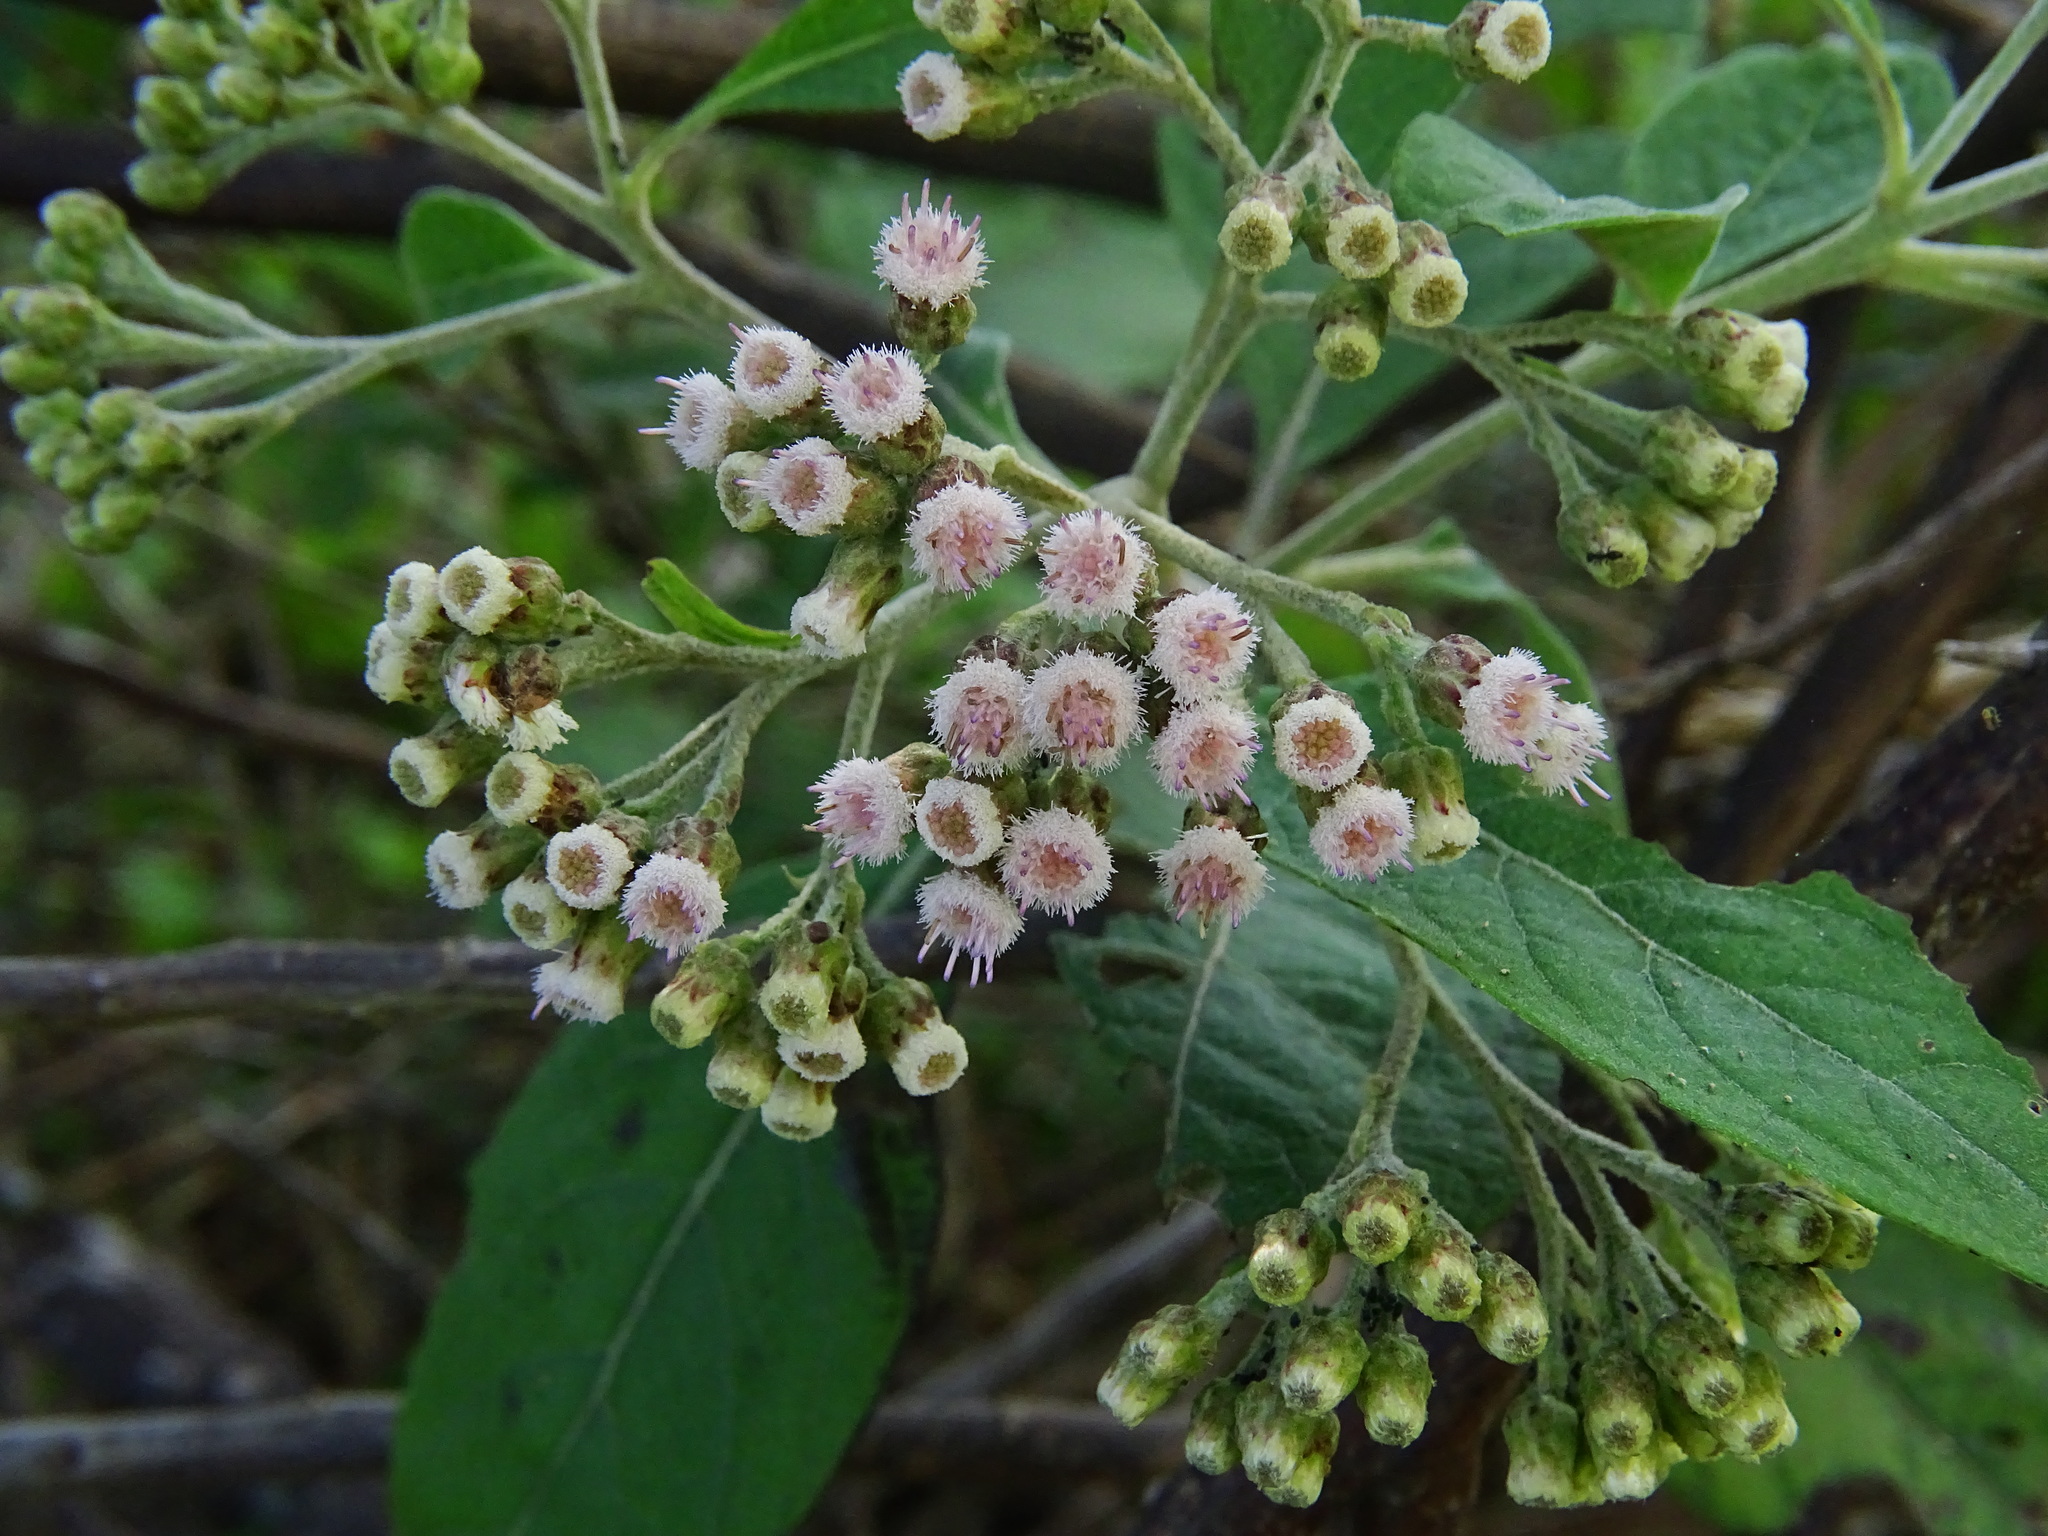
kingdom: Plantae
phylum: Tracheophyta
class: Magnoliopsida
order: Asterales
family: Asteraceae
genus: Pluchea
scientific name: Pluchea carolinensis
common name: Marsh fleabane
